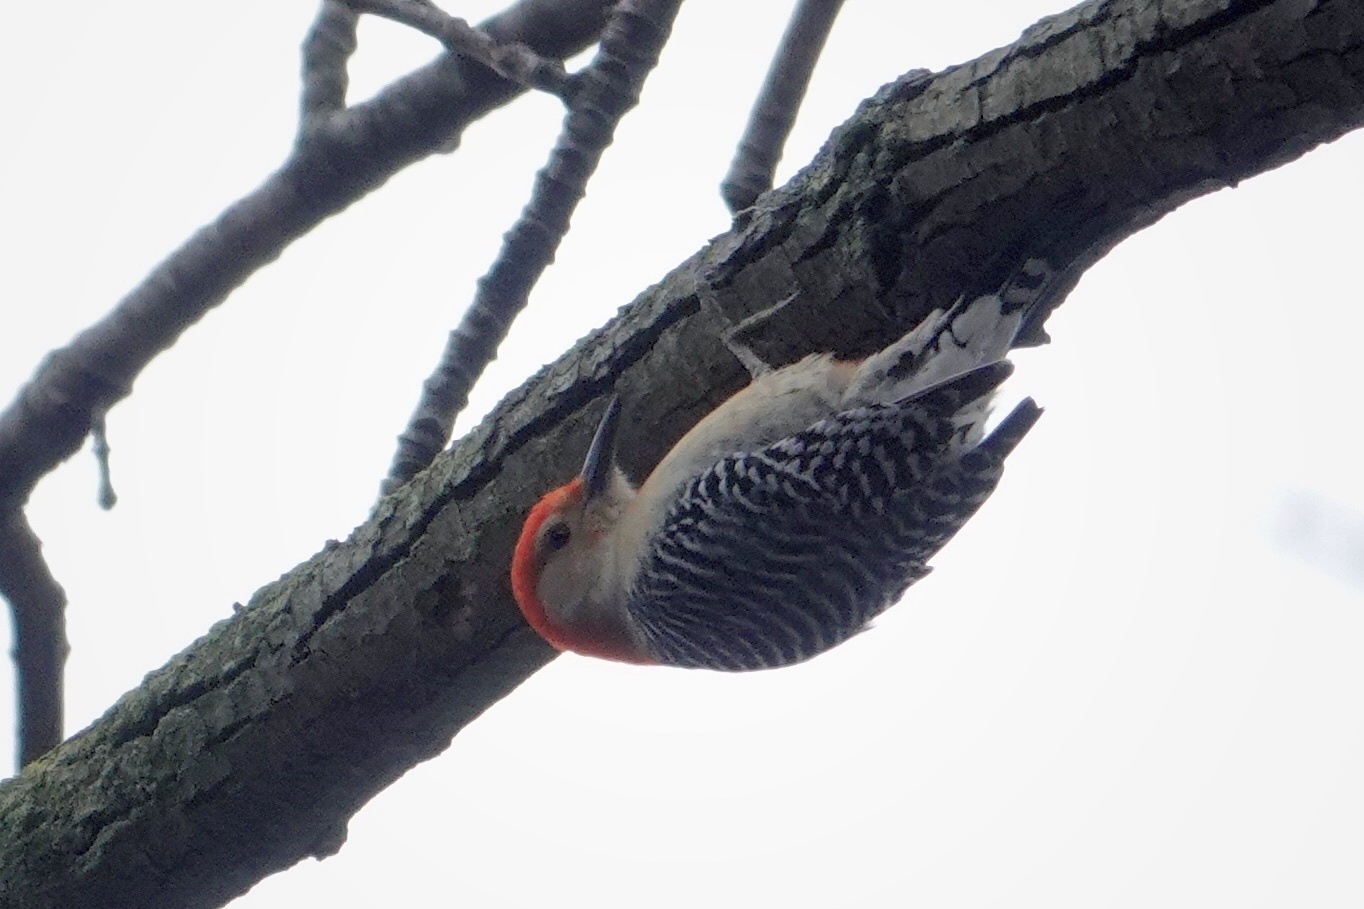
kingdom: Animalia
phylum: Chordata
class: Aves
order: Piciformes
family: Picidae
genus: Melanerpes
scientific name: Melanerpes carolinus
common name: Red-bellied woodpecker
